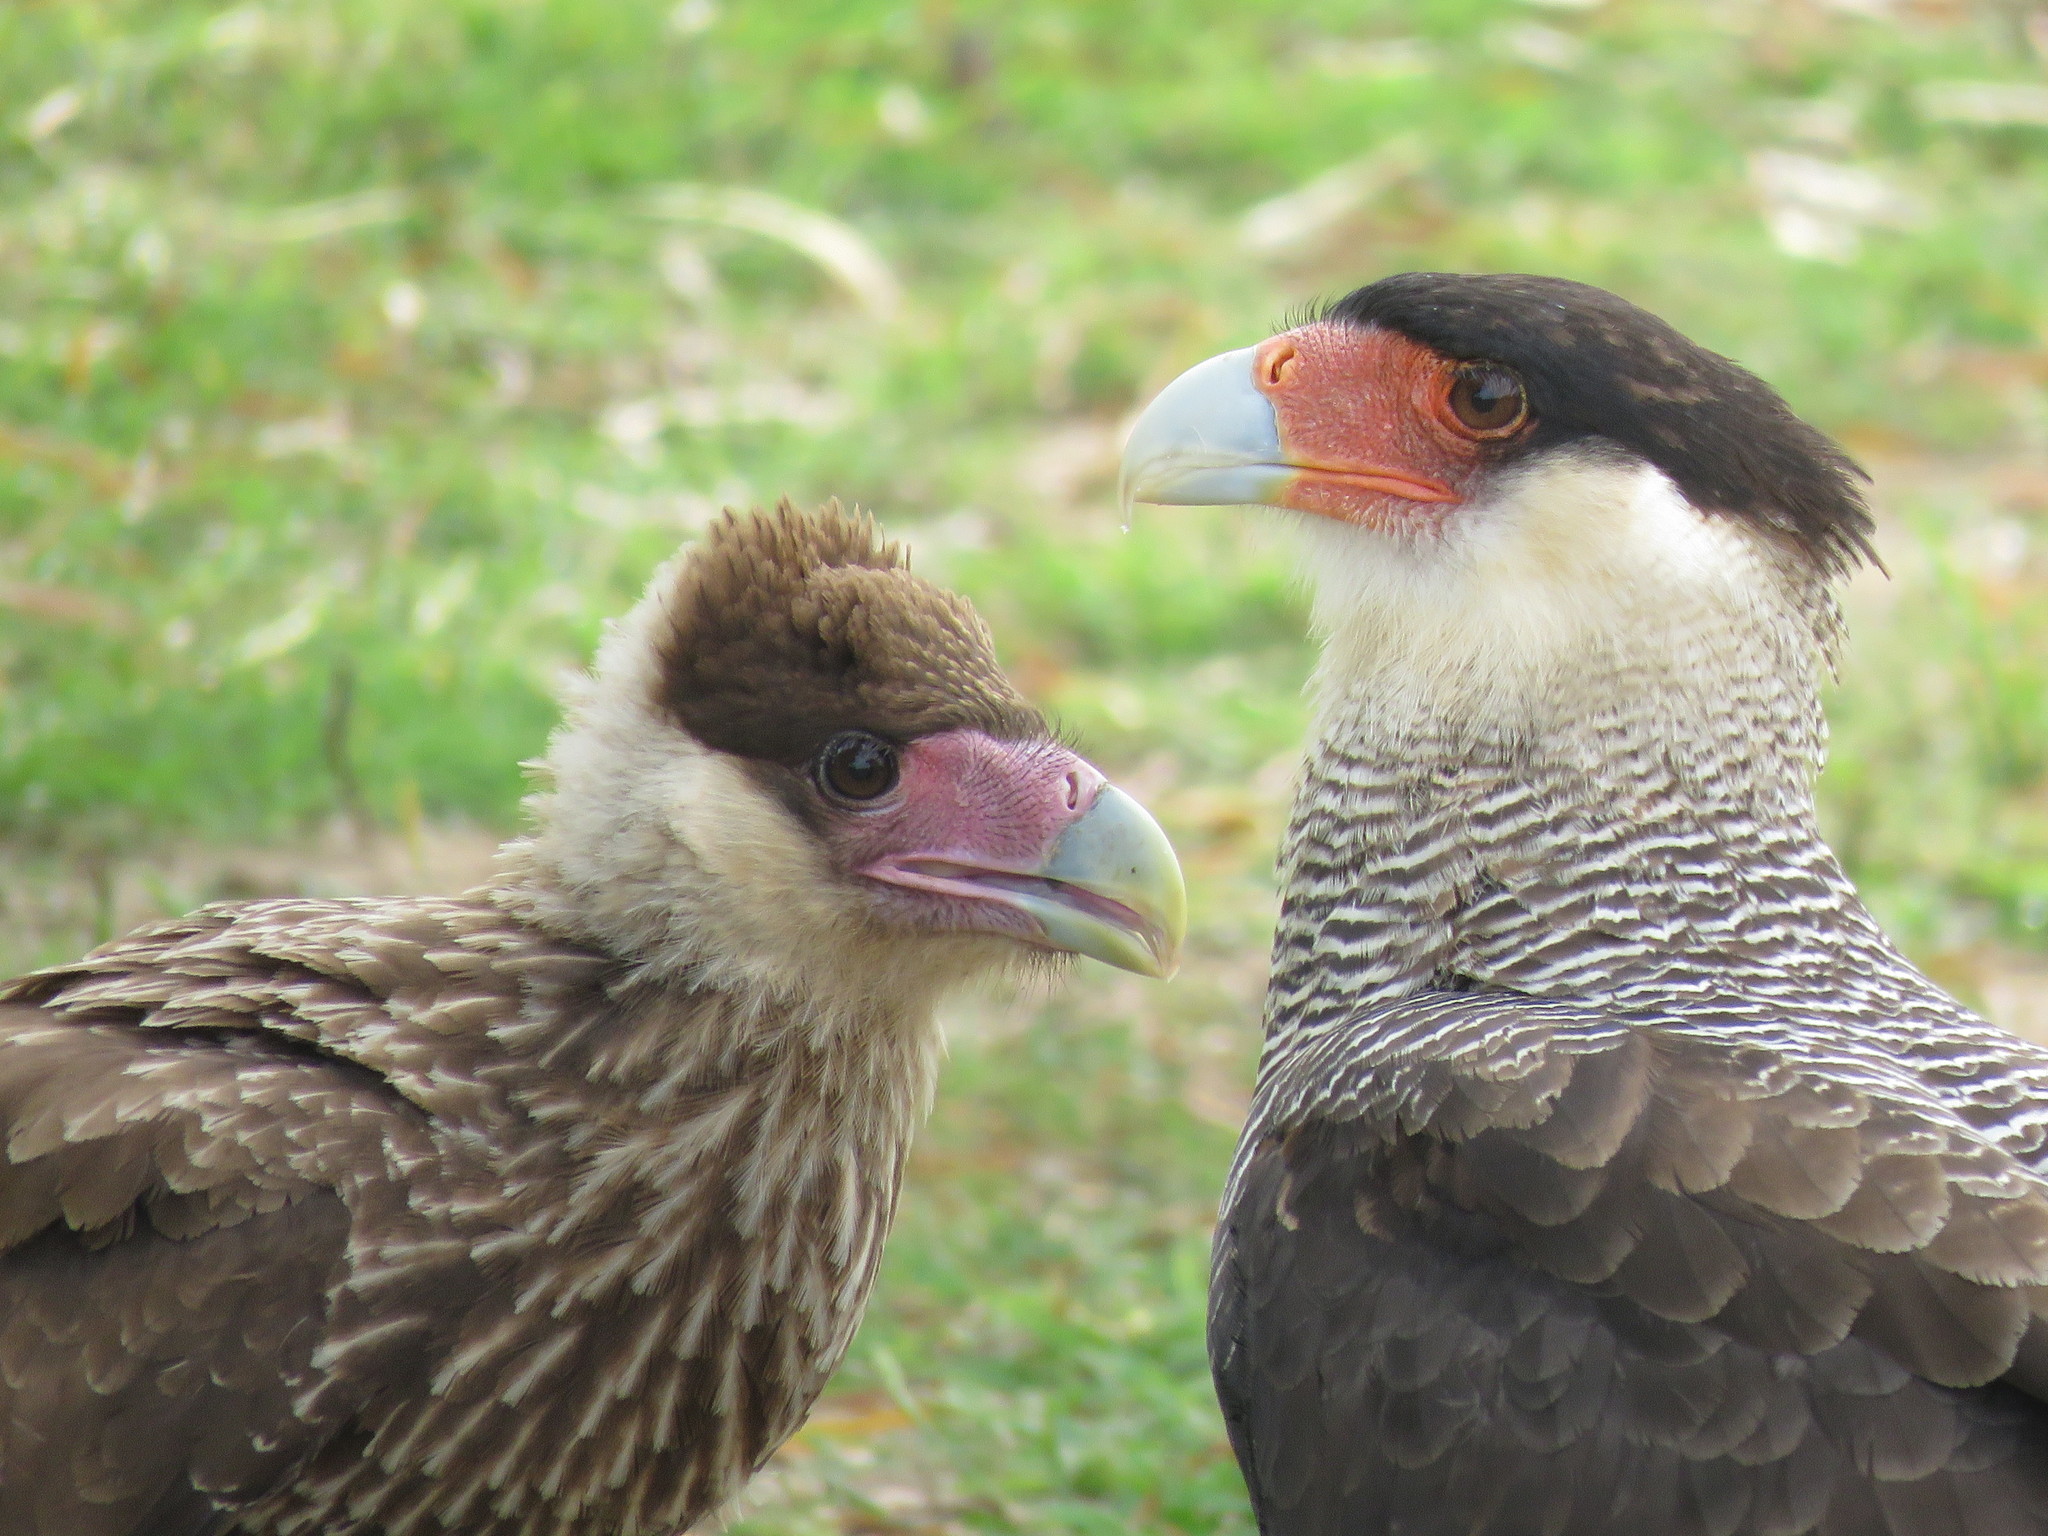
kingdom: Animalia
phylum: Chordata
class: Aves
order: Falconiformes
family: Falconidae
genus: Caracara
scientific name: Caracara plancus
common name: Southern caracara
